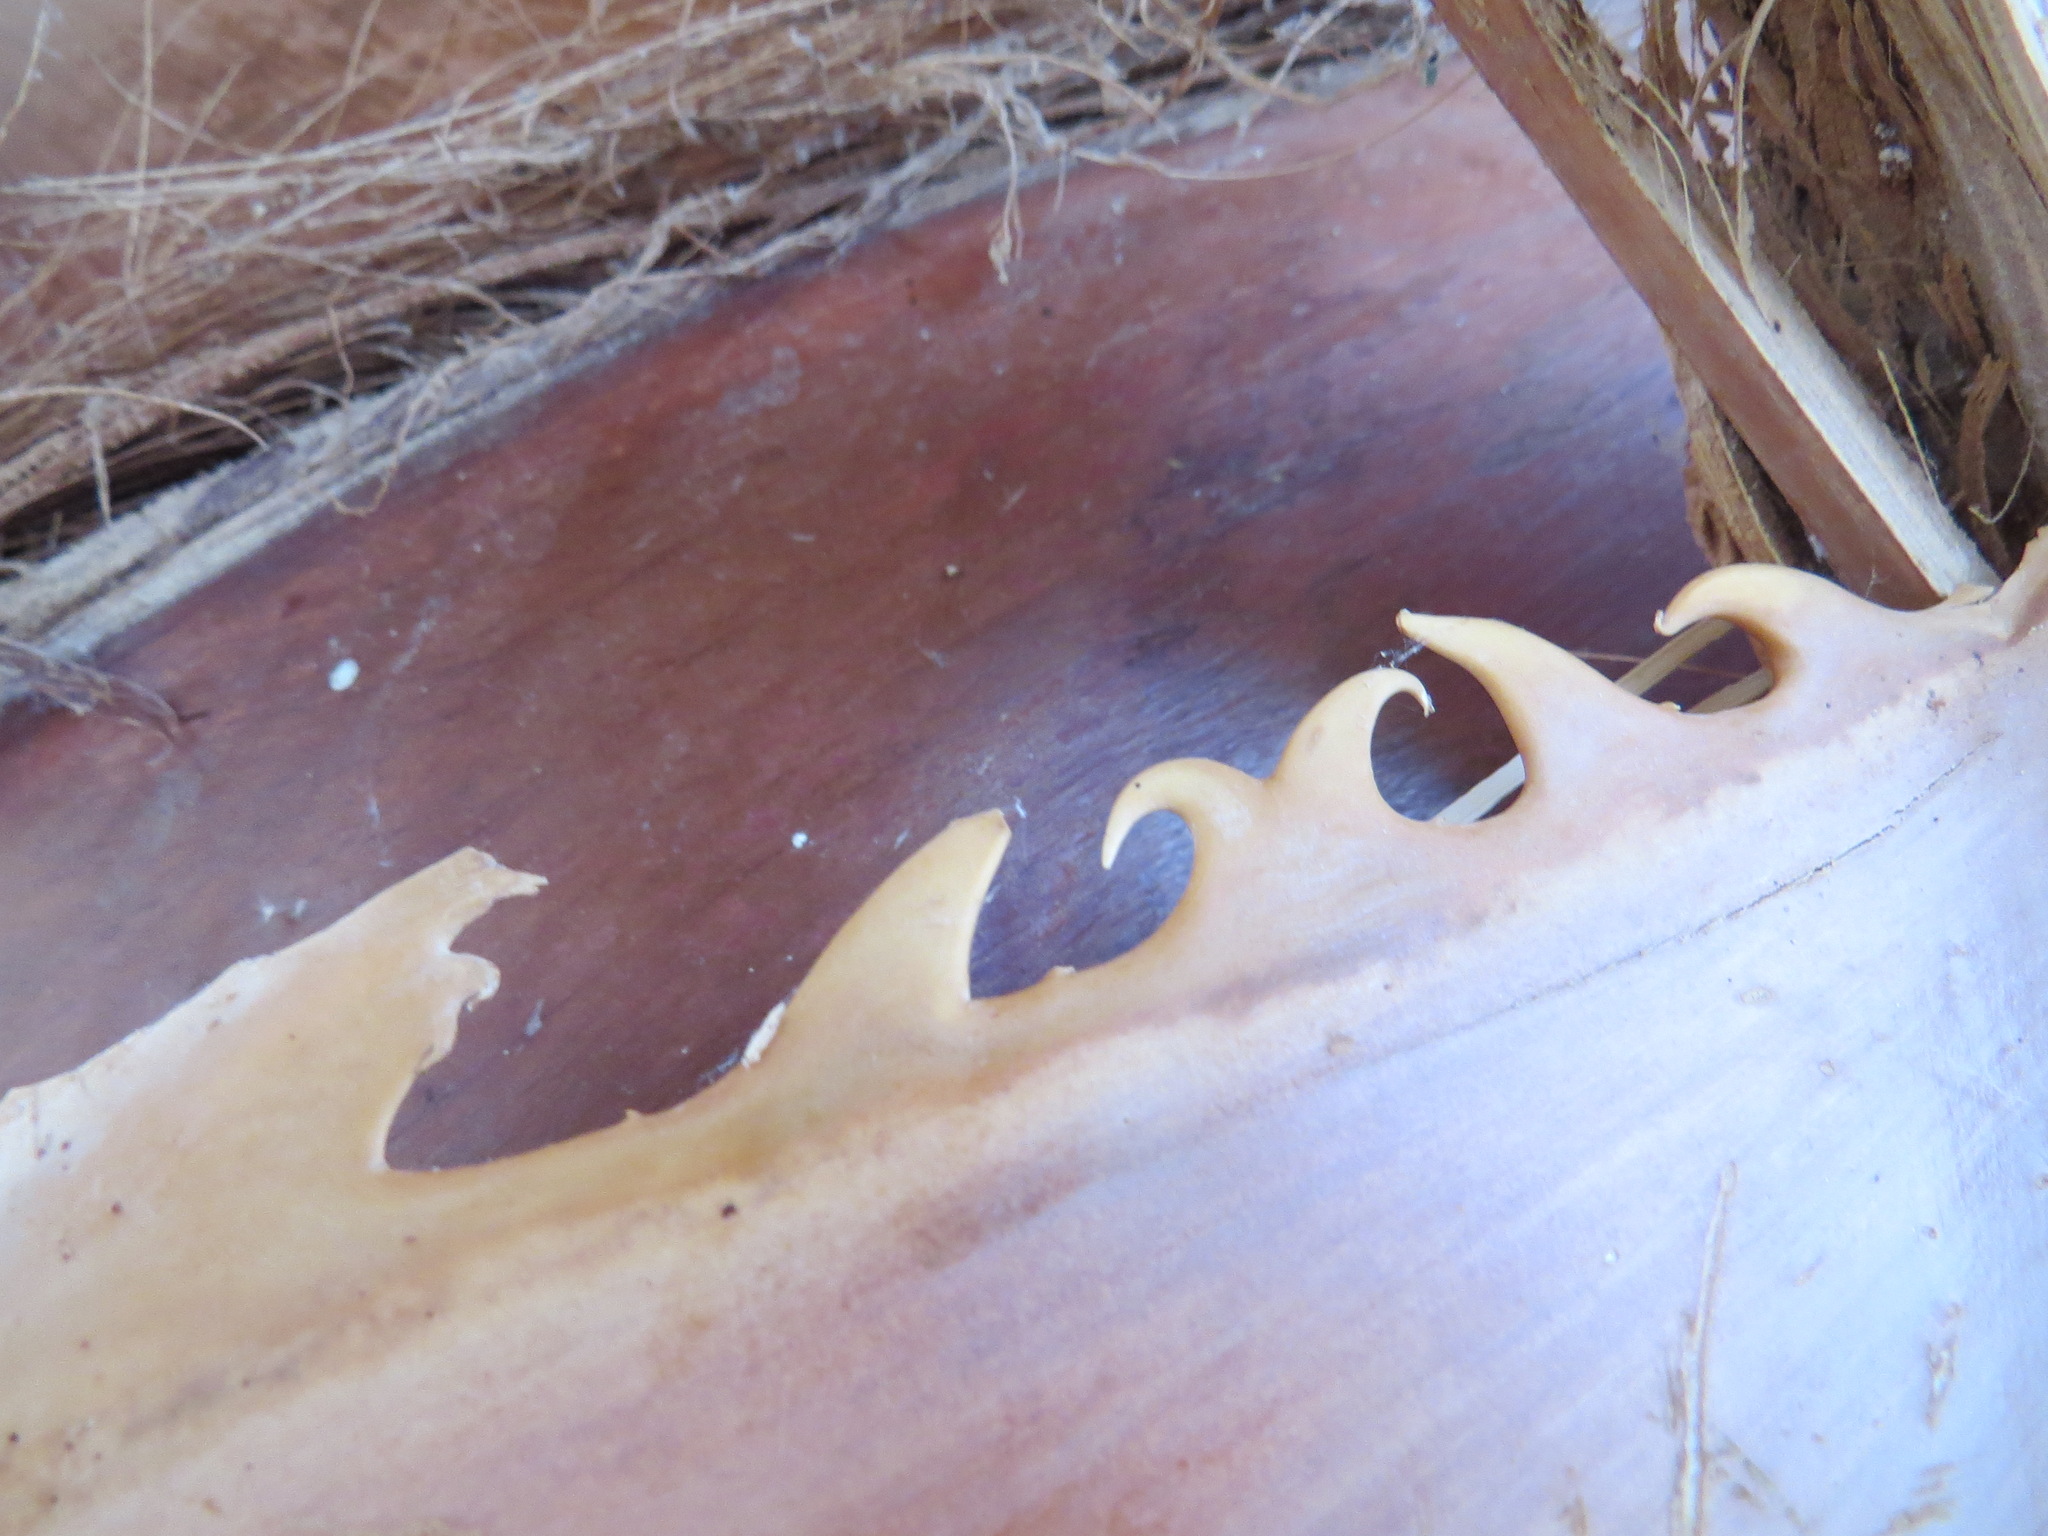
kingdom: Plantae
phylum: Tracheophyta
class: Liliopsida
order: Arecales
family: Arecaceae
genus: Washingtonia
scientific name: Washingtonia filifera
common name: California fan palm
